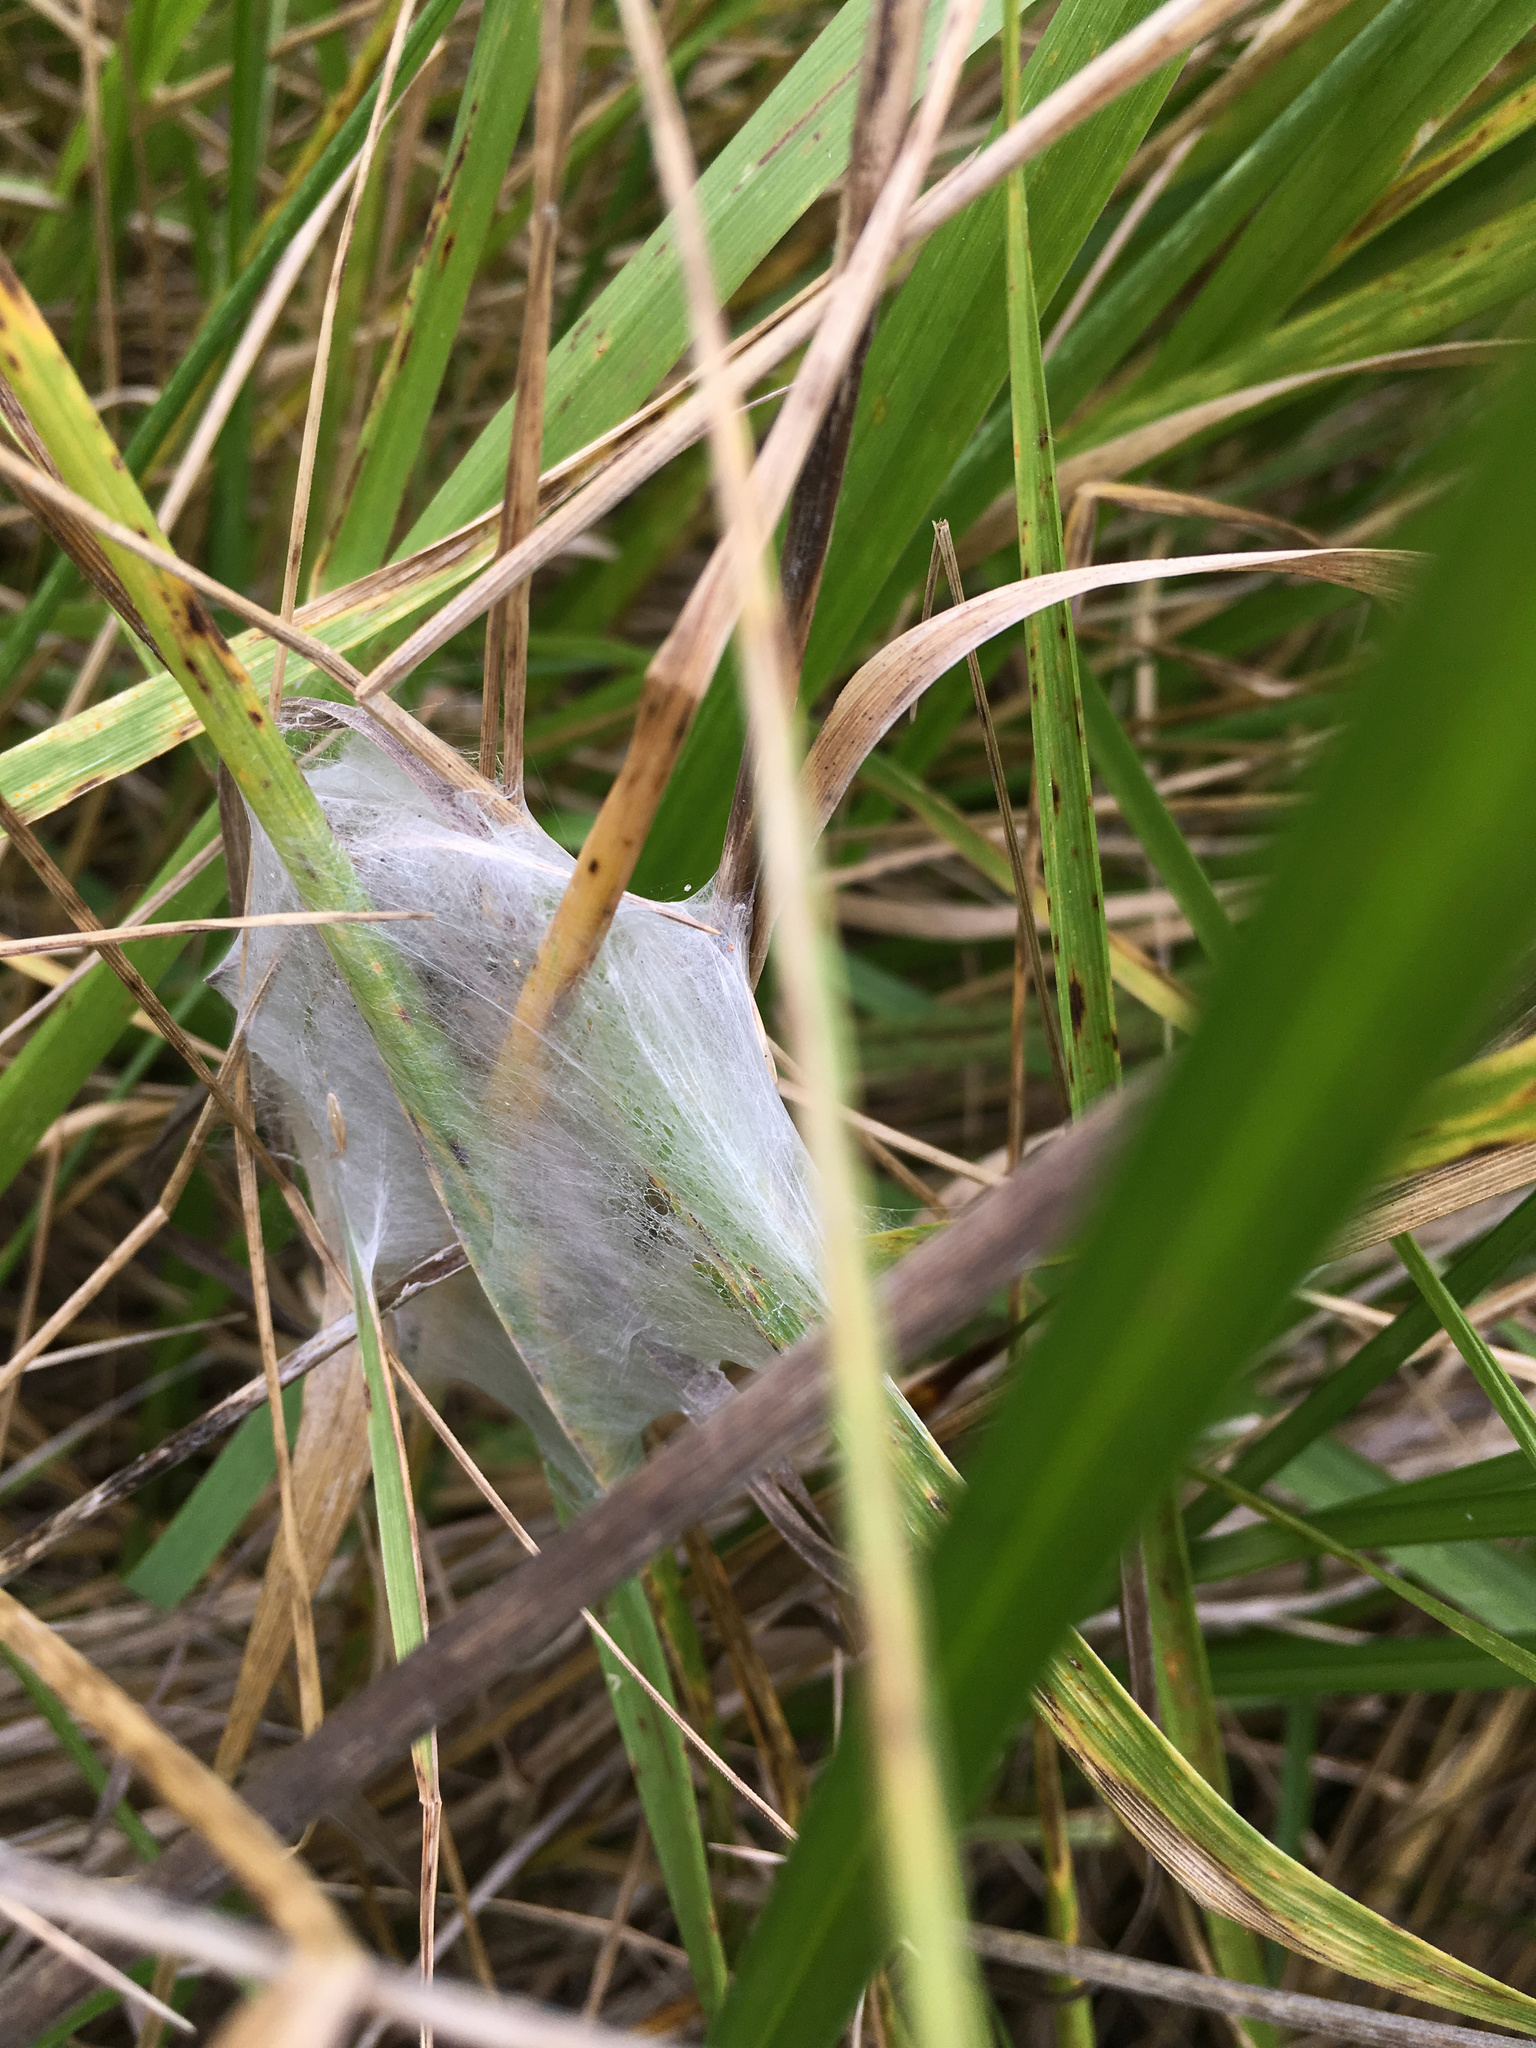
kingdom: Animalia
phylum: Arthropoda
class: Arachnida
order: Araneae
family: Pisauridae
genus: Dolomedes
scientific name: Dolomedes minor
